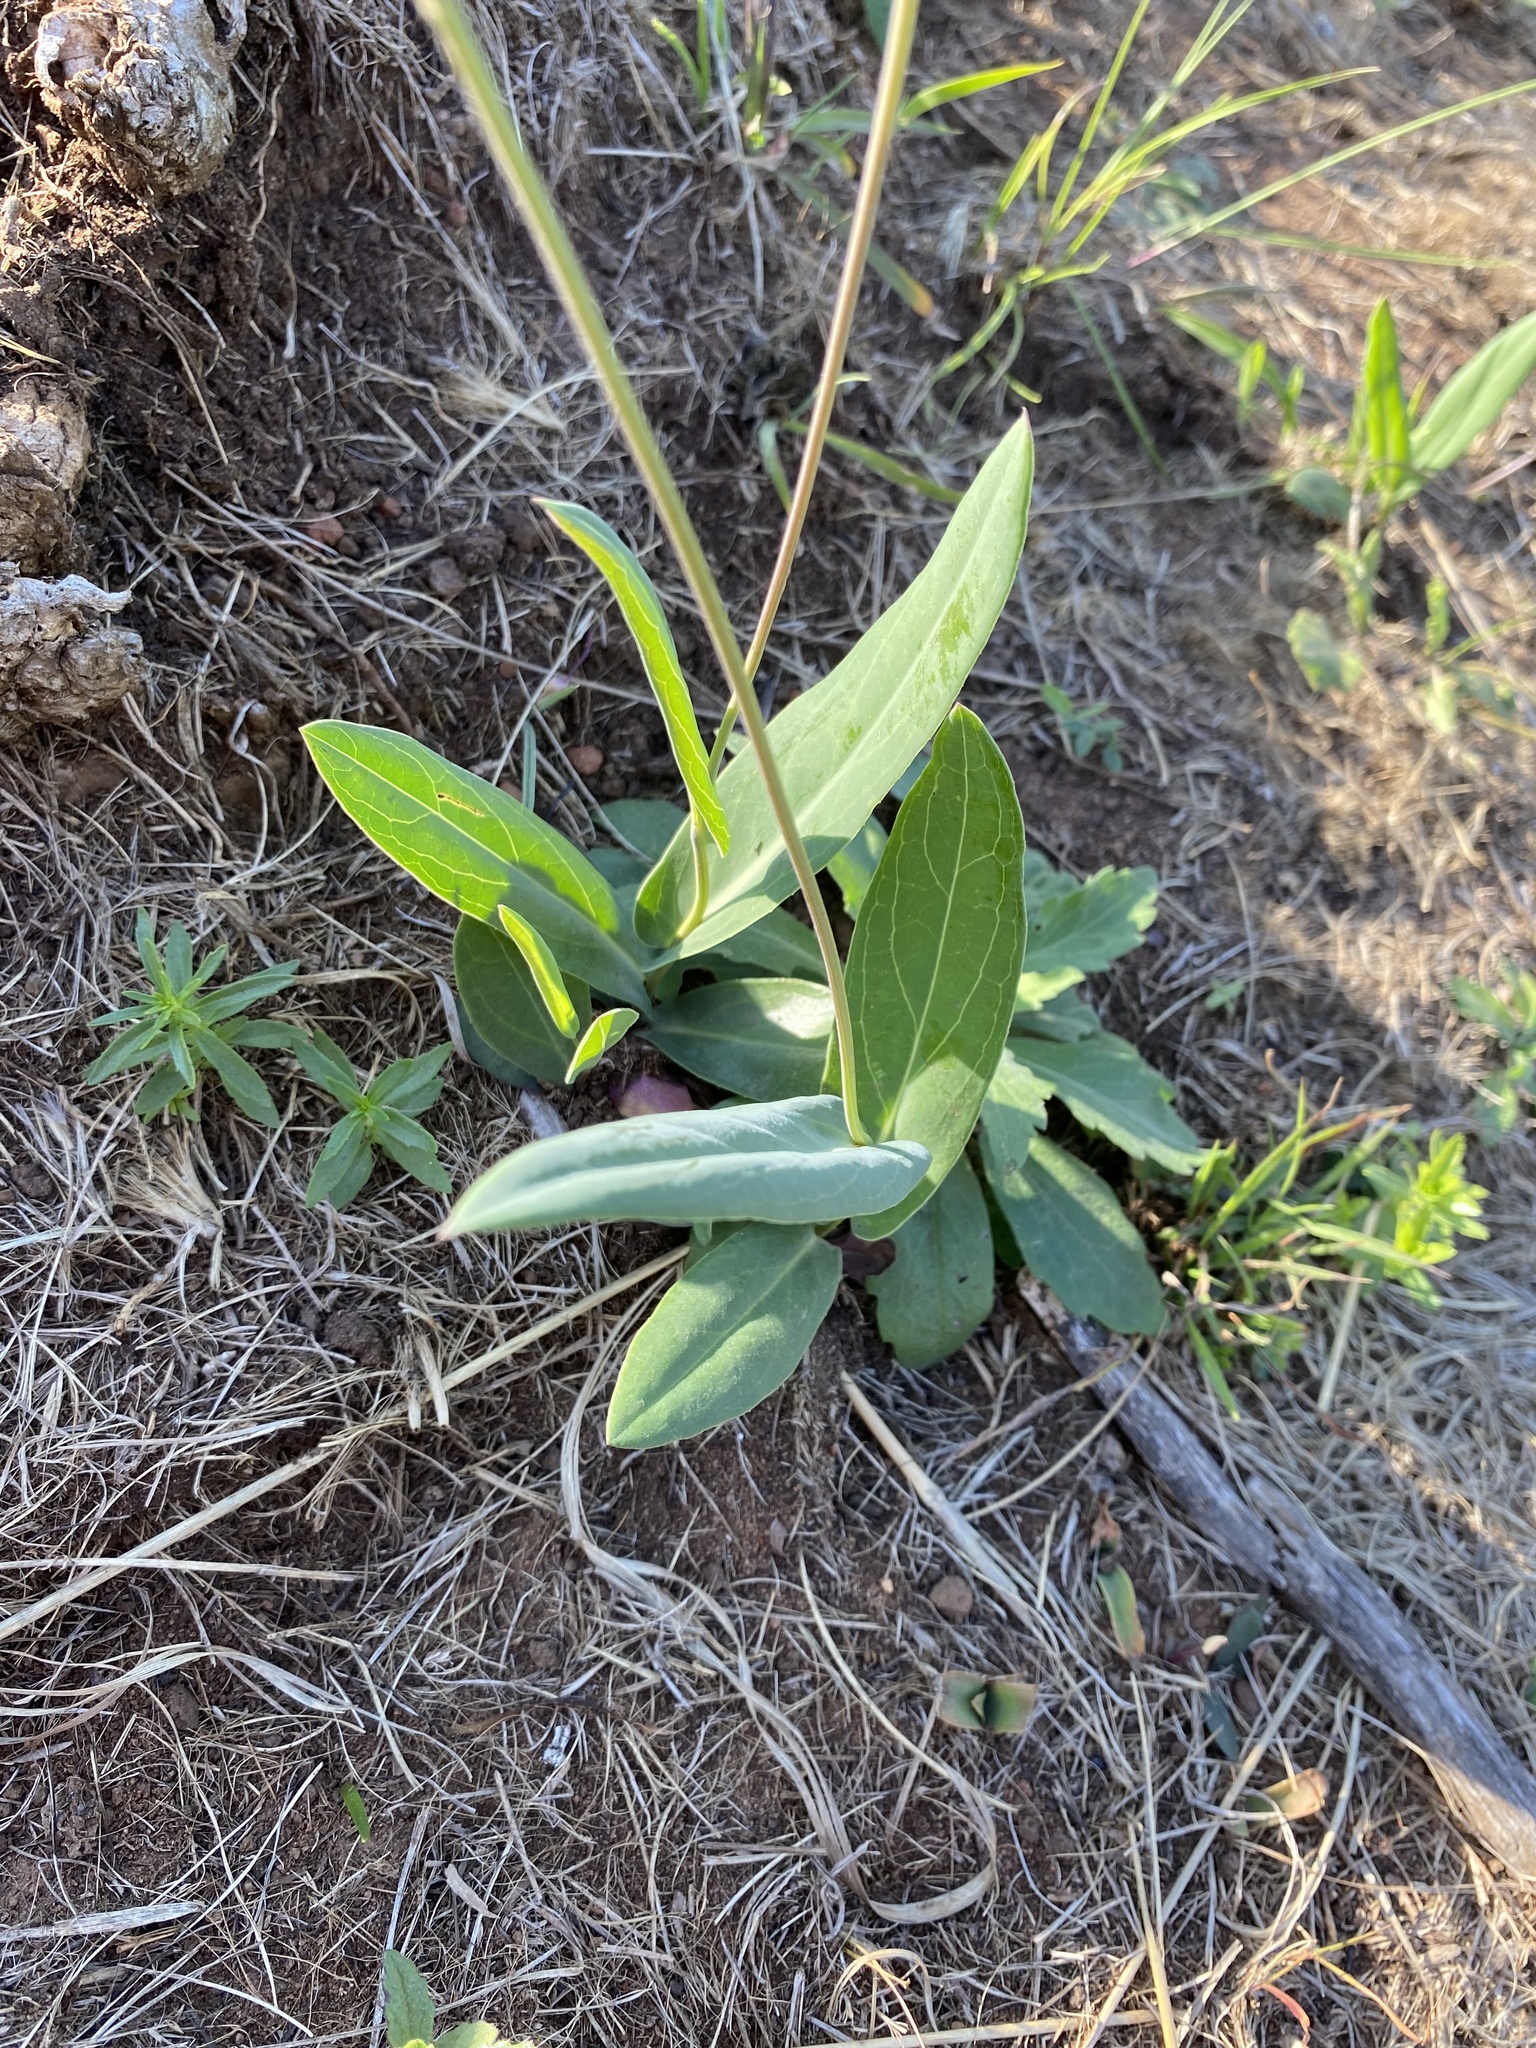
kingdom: Plantae
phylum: Tracheophyta
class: Magnoliopsida
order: Asterales
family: Asteraceae
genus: Senecio
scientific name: Senecio bupleuroides
